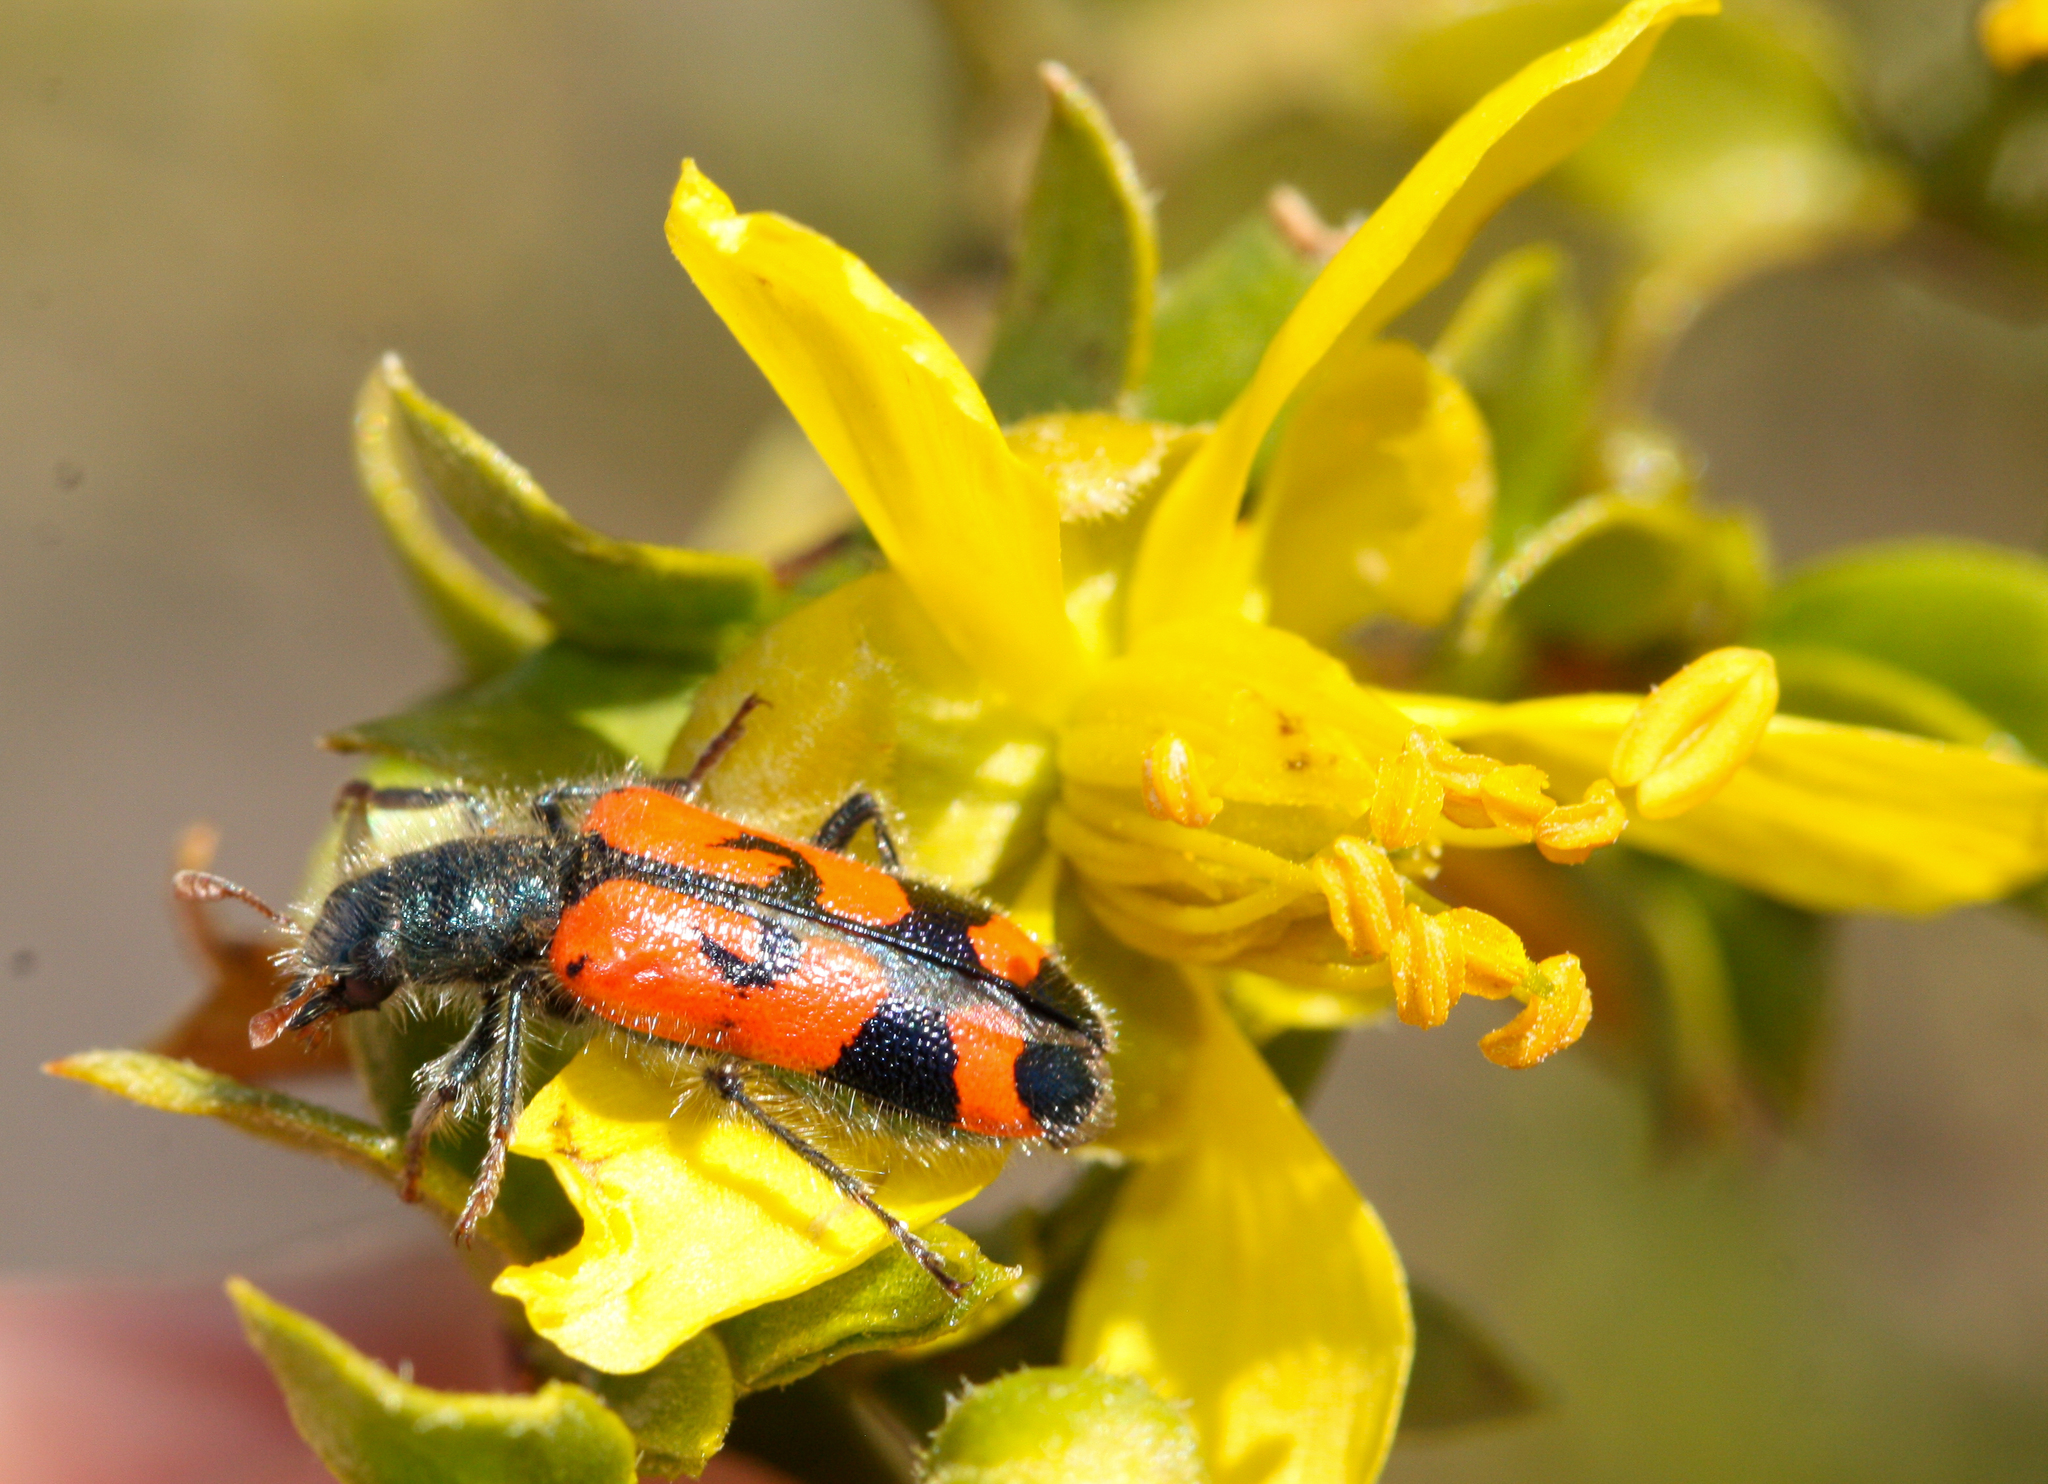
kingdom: Animalia
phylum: Arthropoda
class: Insecta
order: Coleoptera
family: Cleridae
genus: Trichodes
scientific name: Trichodes ornatus
